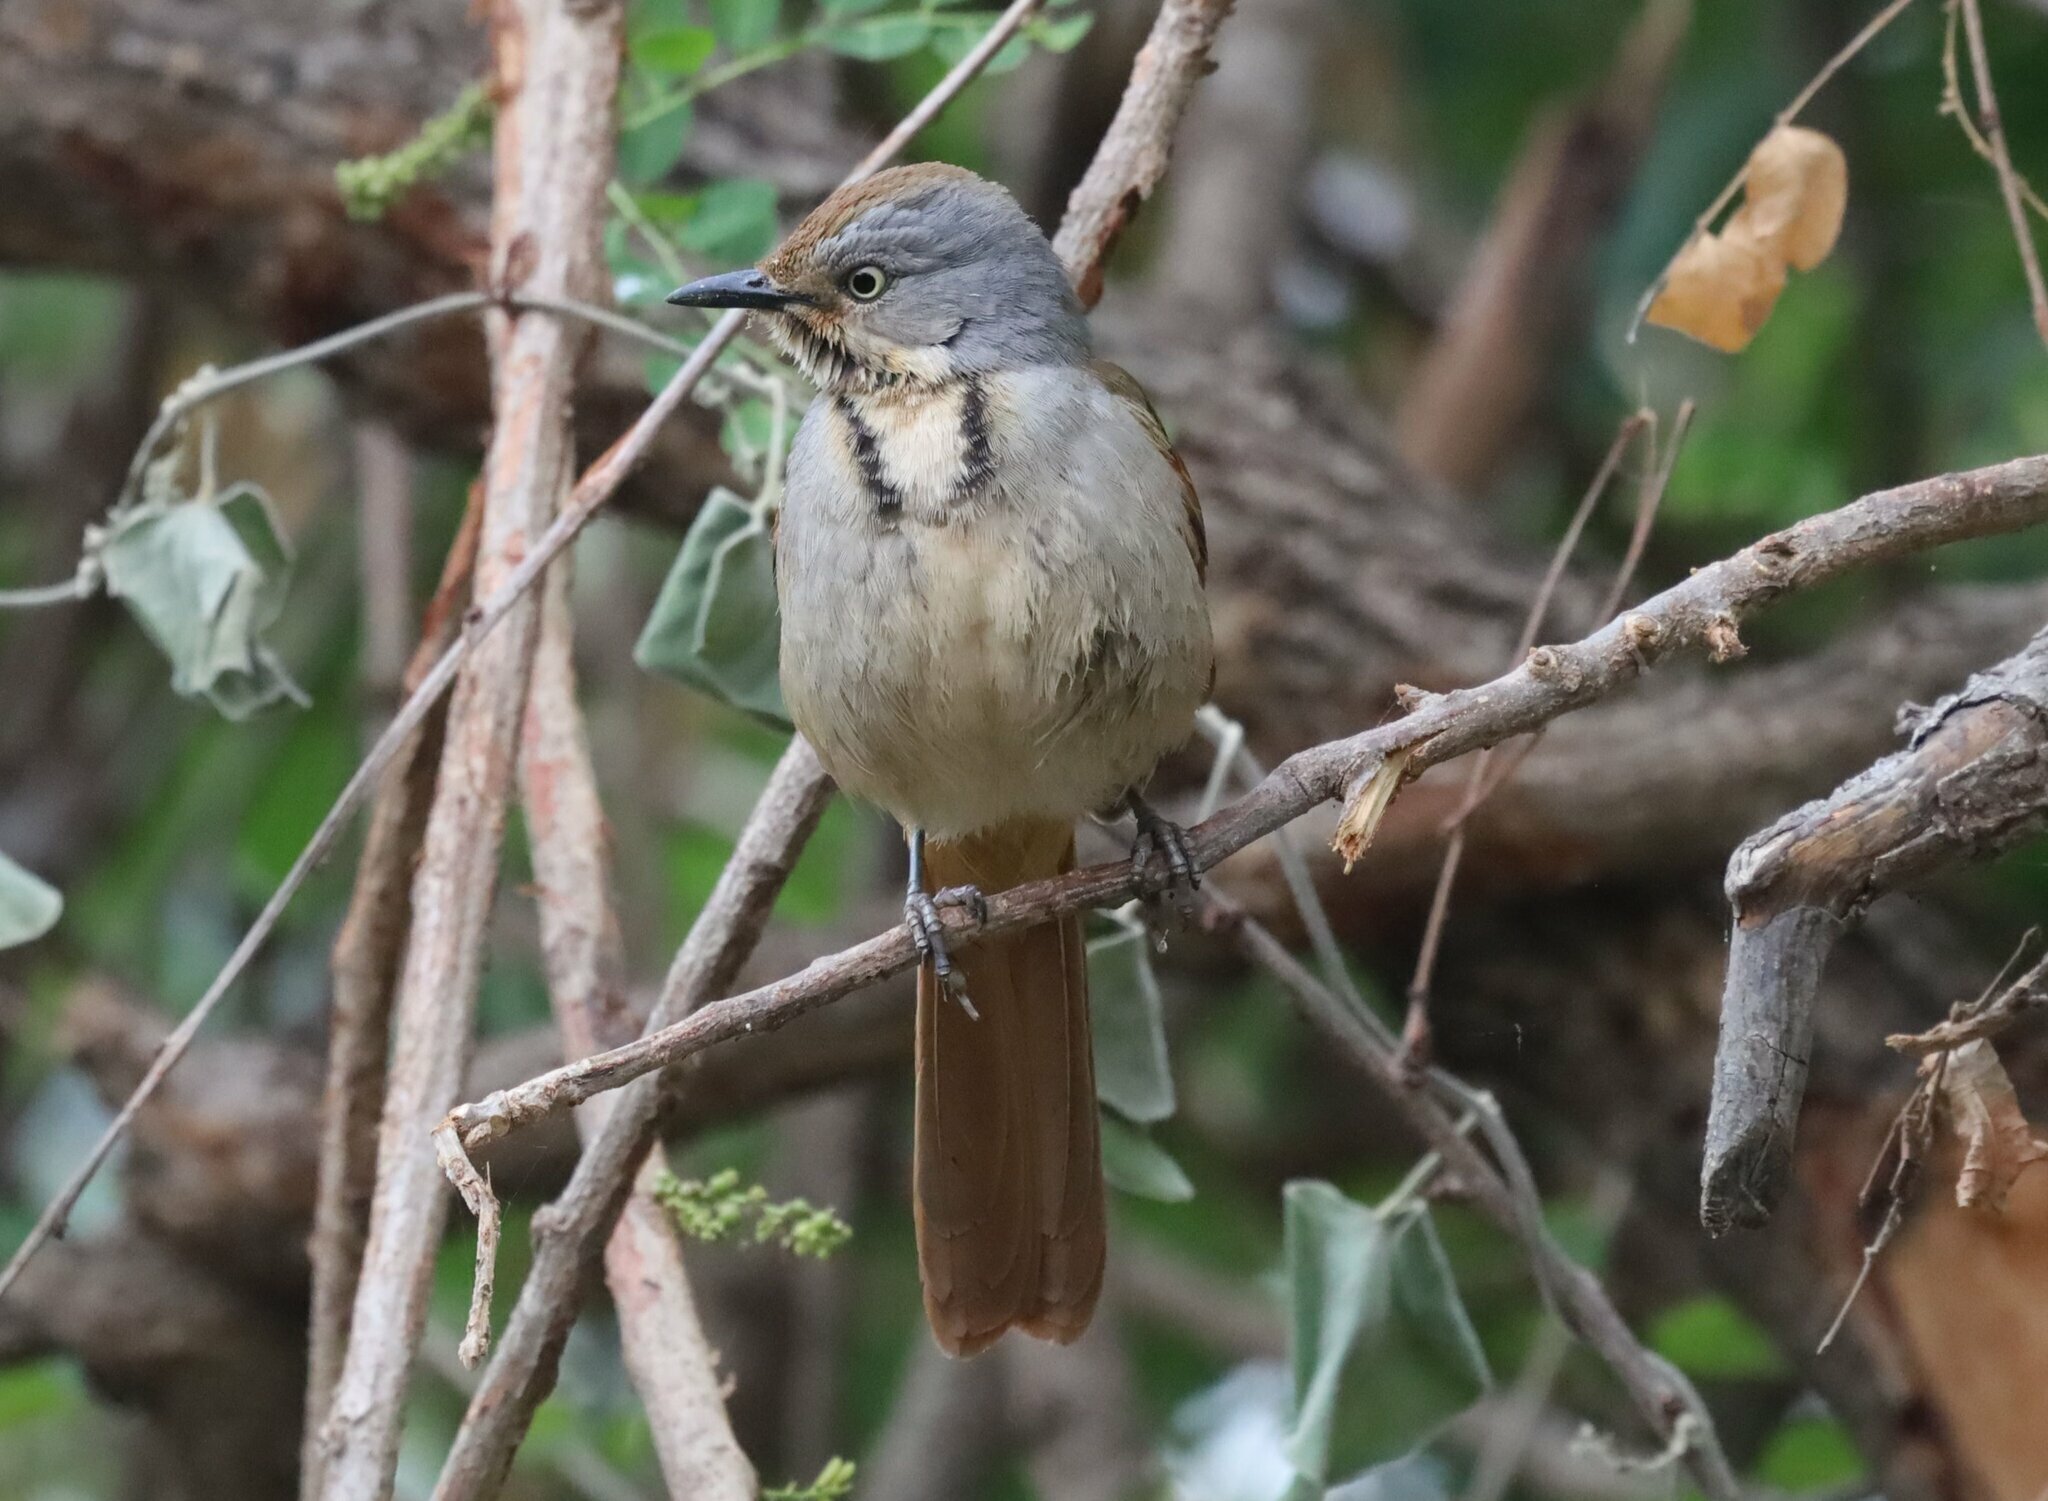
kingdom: Animalia
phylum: Chordata
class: Aves
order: Passeriformes
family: Muscicapidae
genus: Cichladusa
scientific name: Cichladusa arquata
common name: Collared palm thrush
